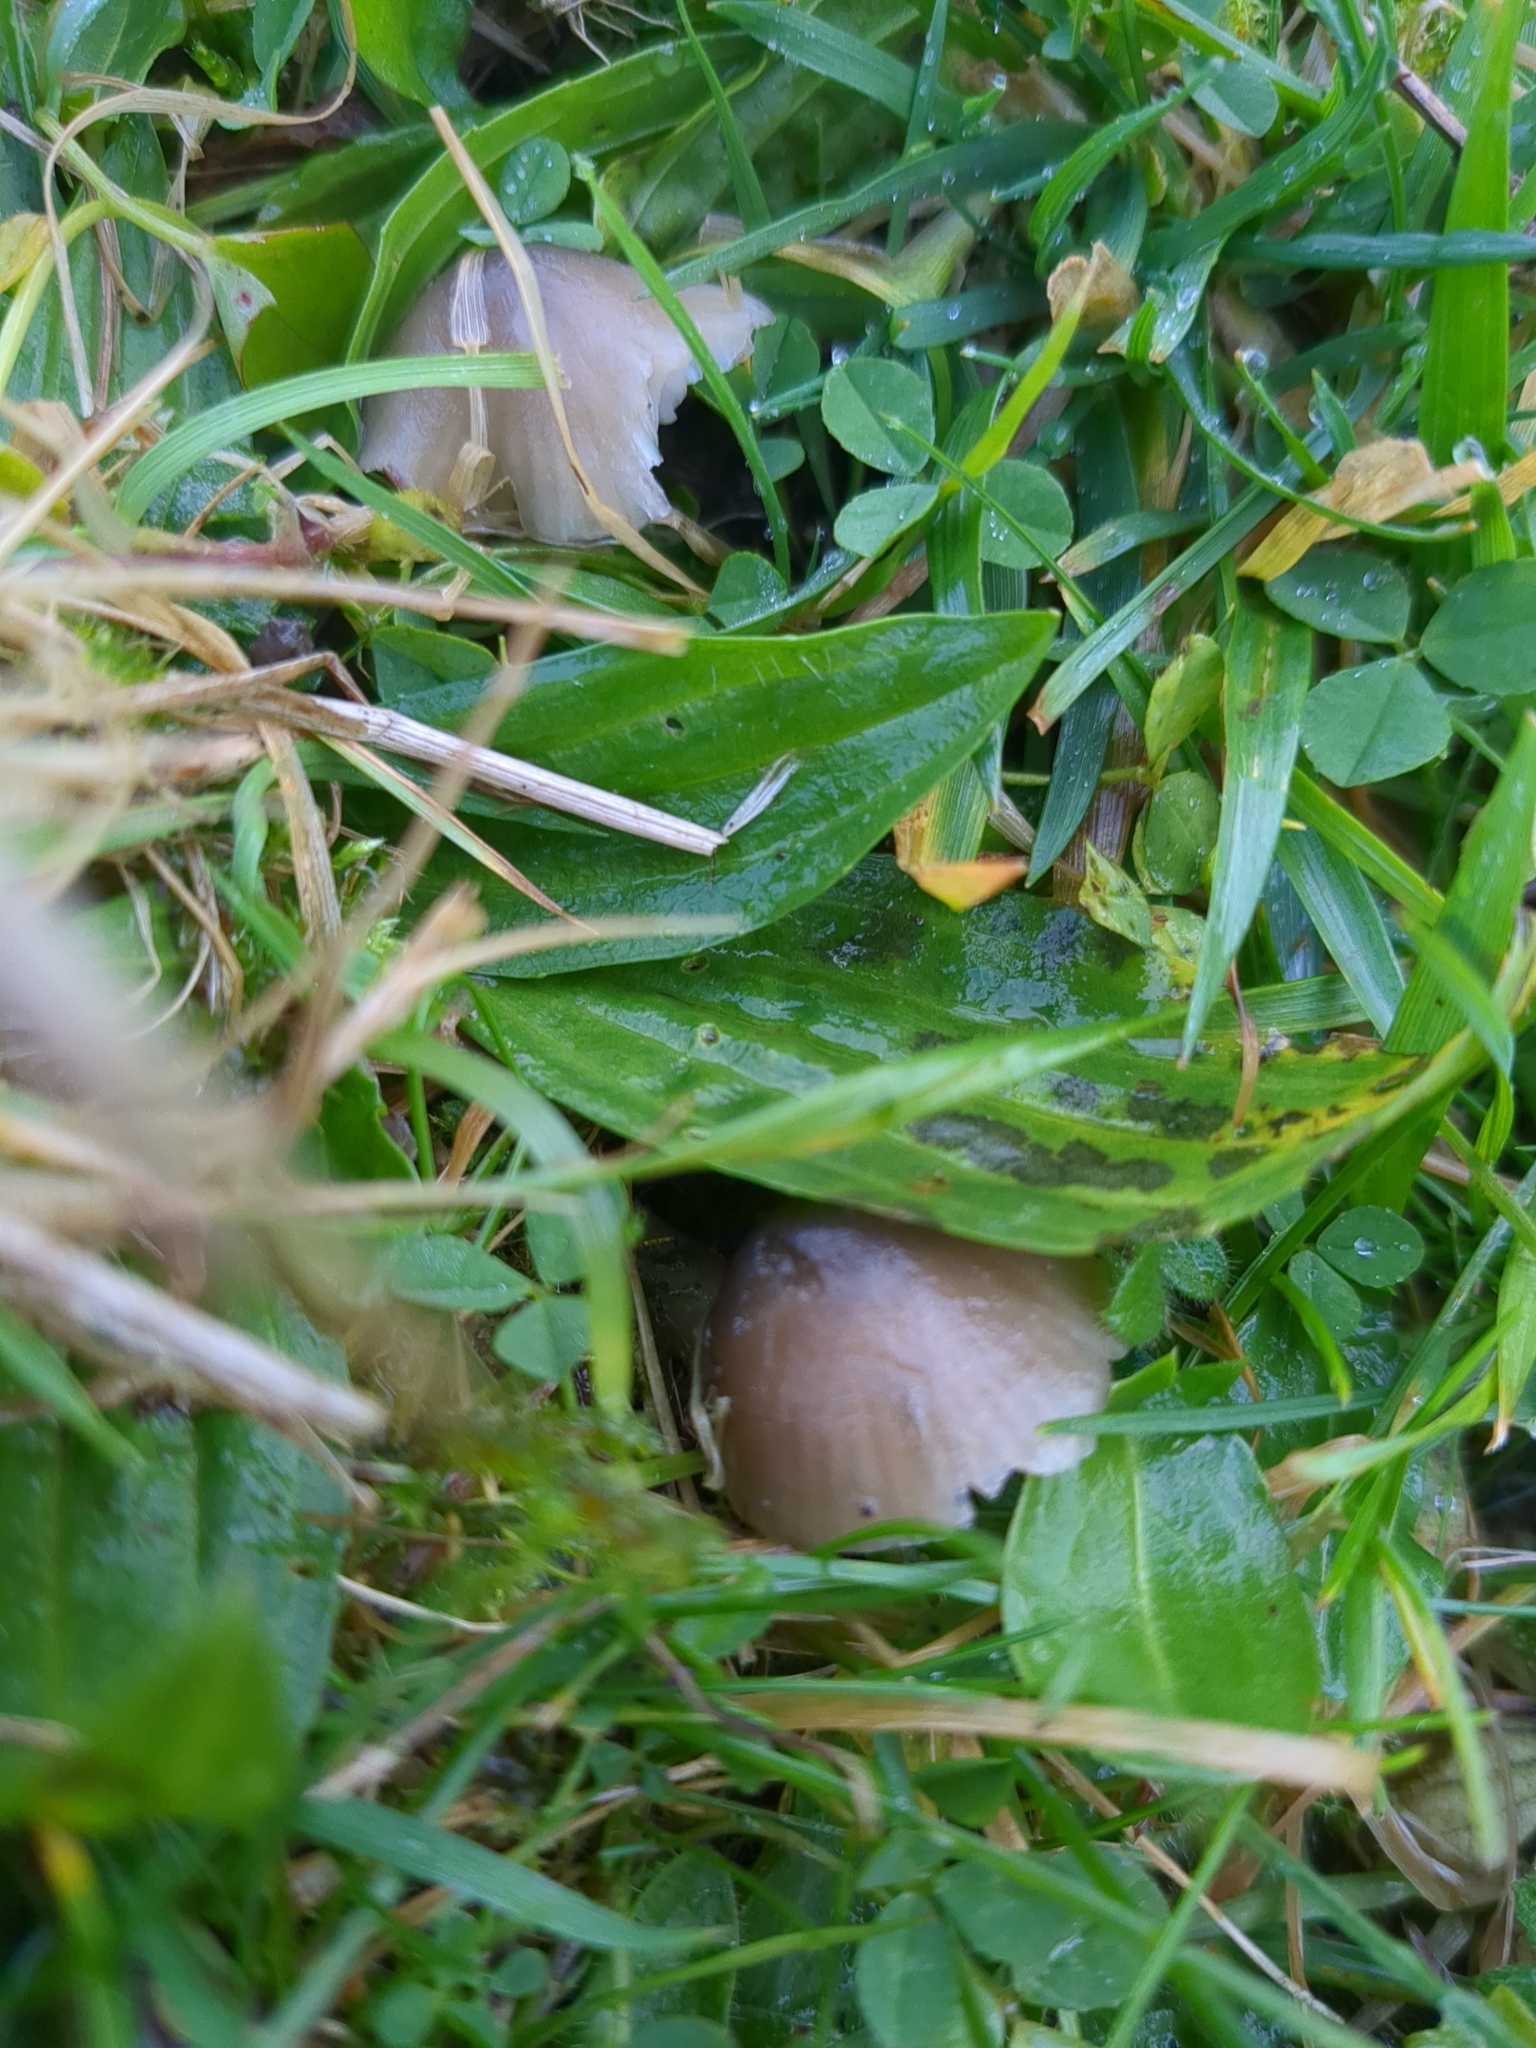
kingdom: Fungi
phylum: Basidiomycota
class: Agaricomycetes
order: Agaricales
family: Hygrophoraceae
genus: Gliophorus
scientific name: Gliophorus irrigatus
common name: Slimy waxcap
